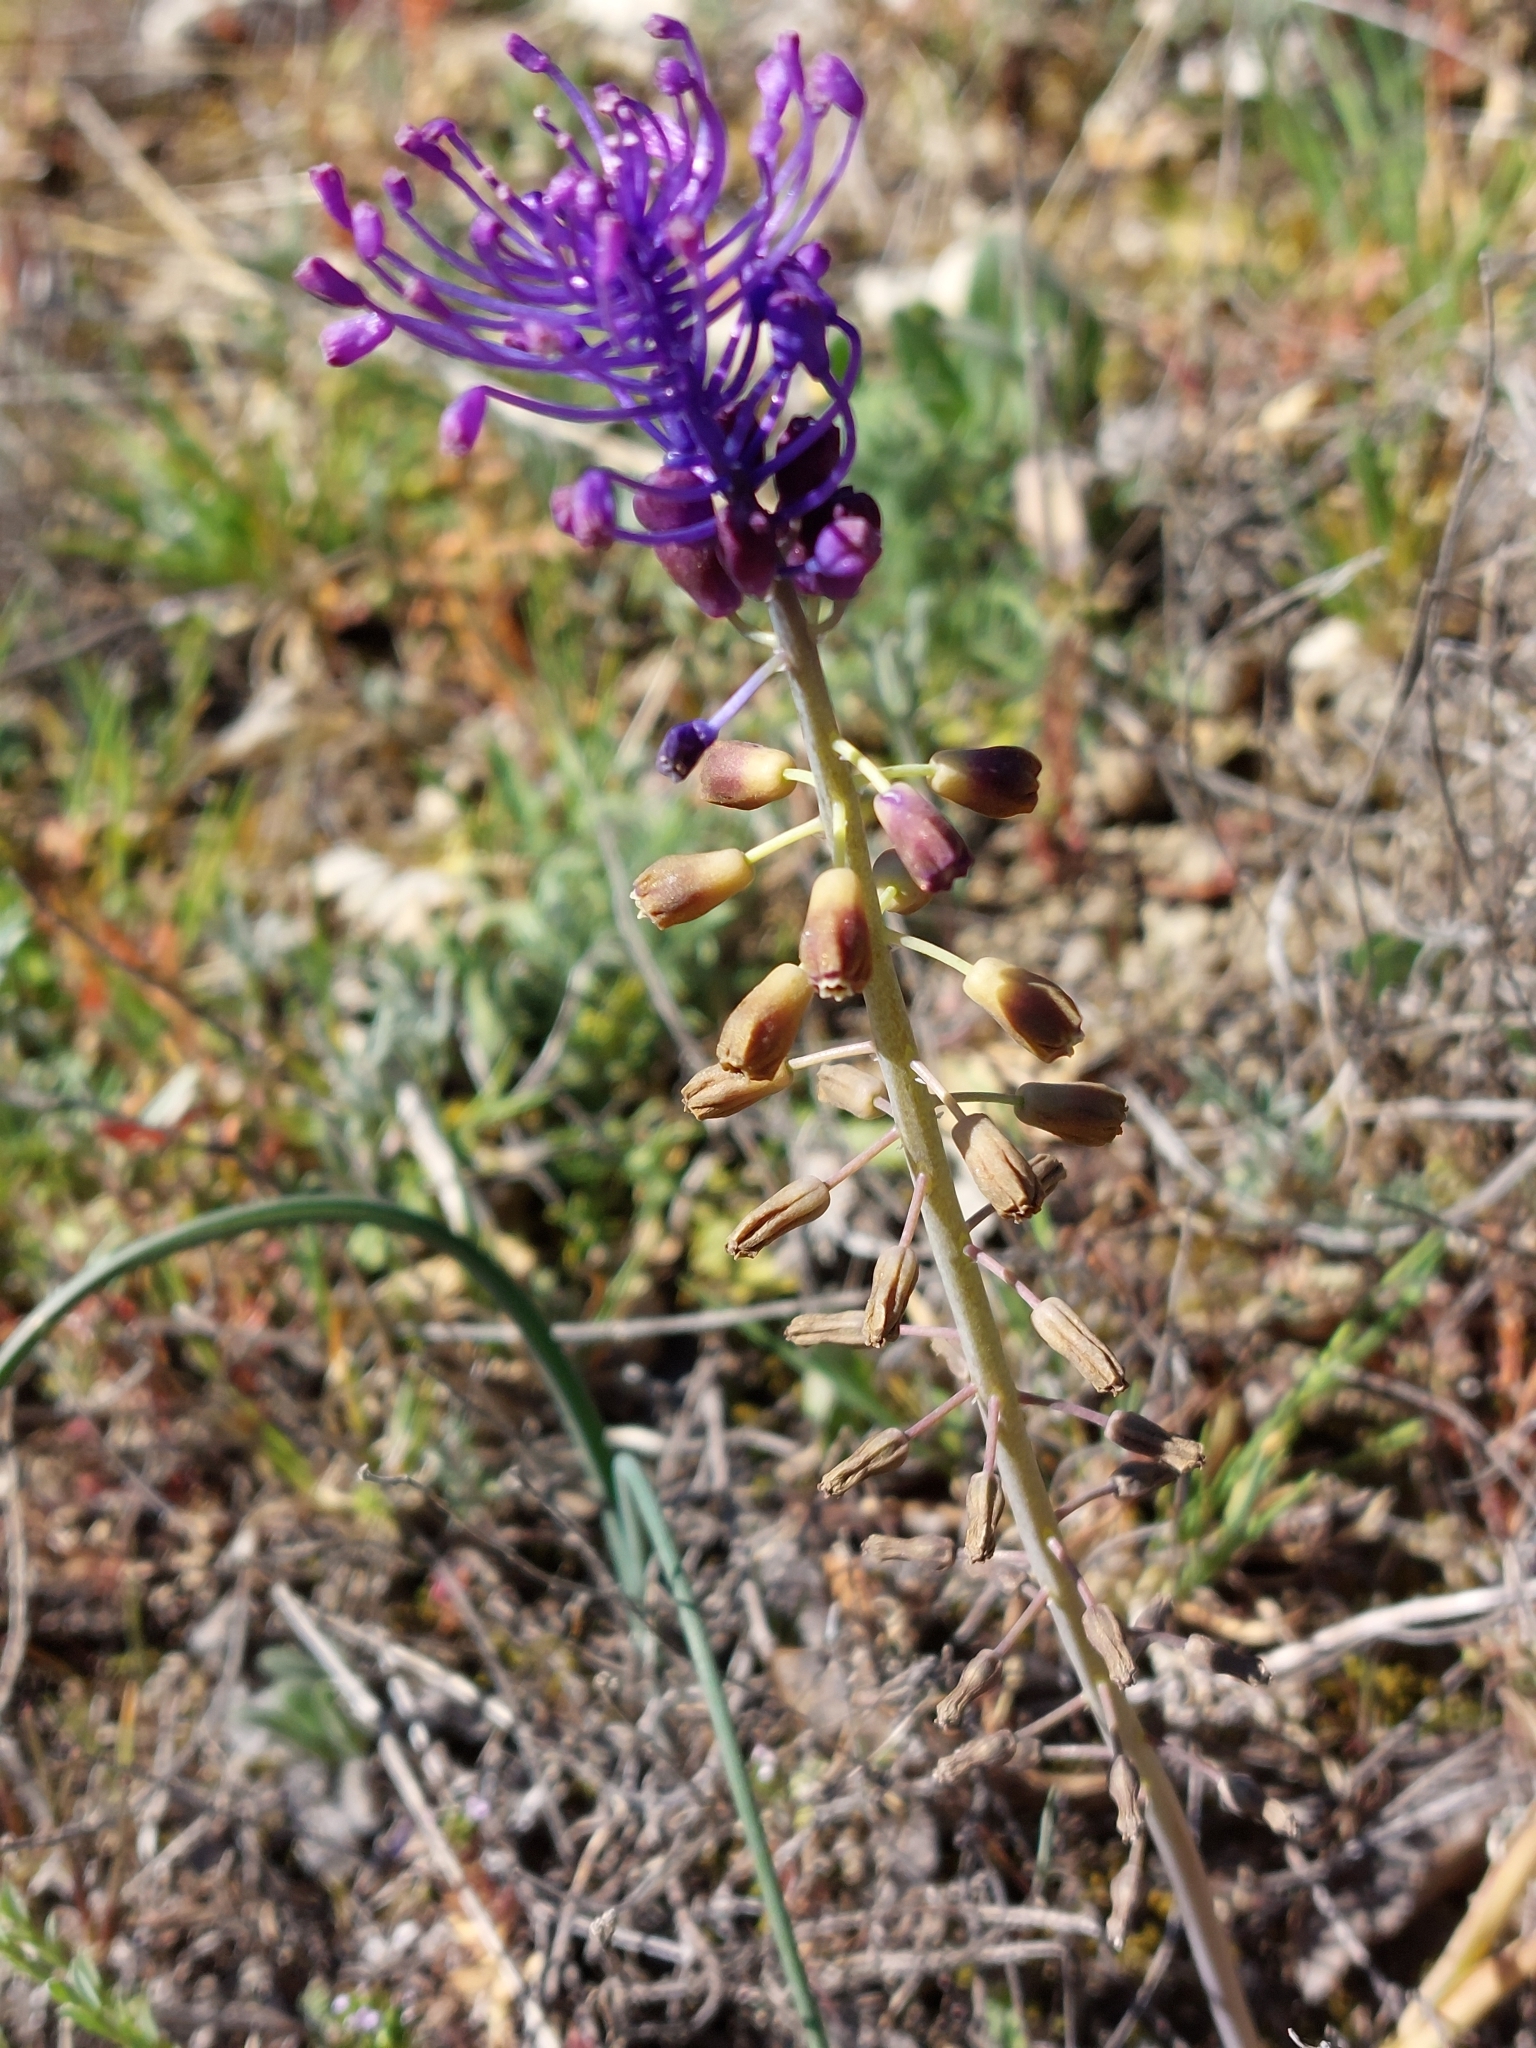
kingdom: Plantae
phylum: Tracheophyta
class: Liliopsida
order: Asparagales
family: Asparagaceae
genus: Muscari
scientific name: Muscari comosum
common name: Tassel hyacinth
